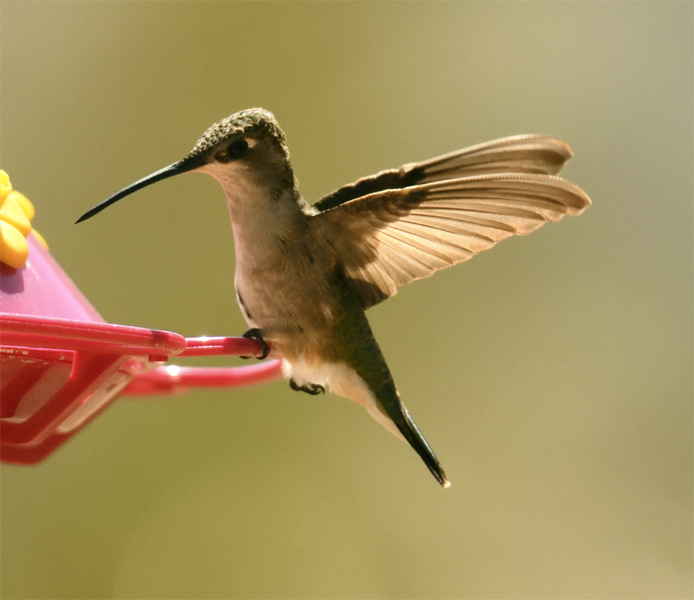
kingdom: Animalia
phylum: Chordata
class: Aves
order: Apodiformes
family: Trochilidae
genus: Archilochus
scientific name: Archilochus alexandri
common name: Black-chinned hummingbird
